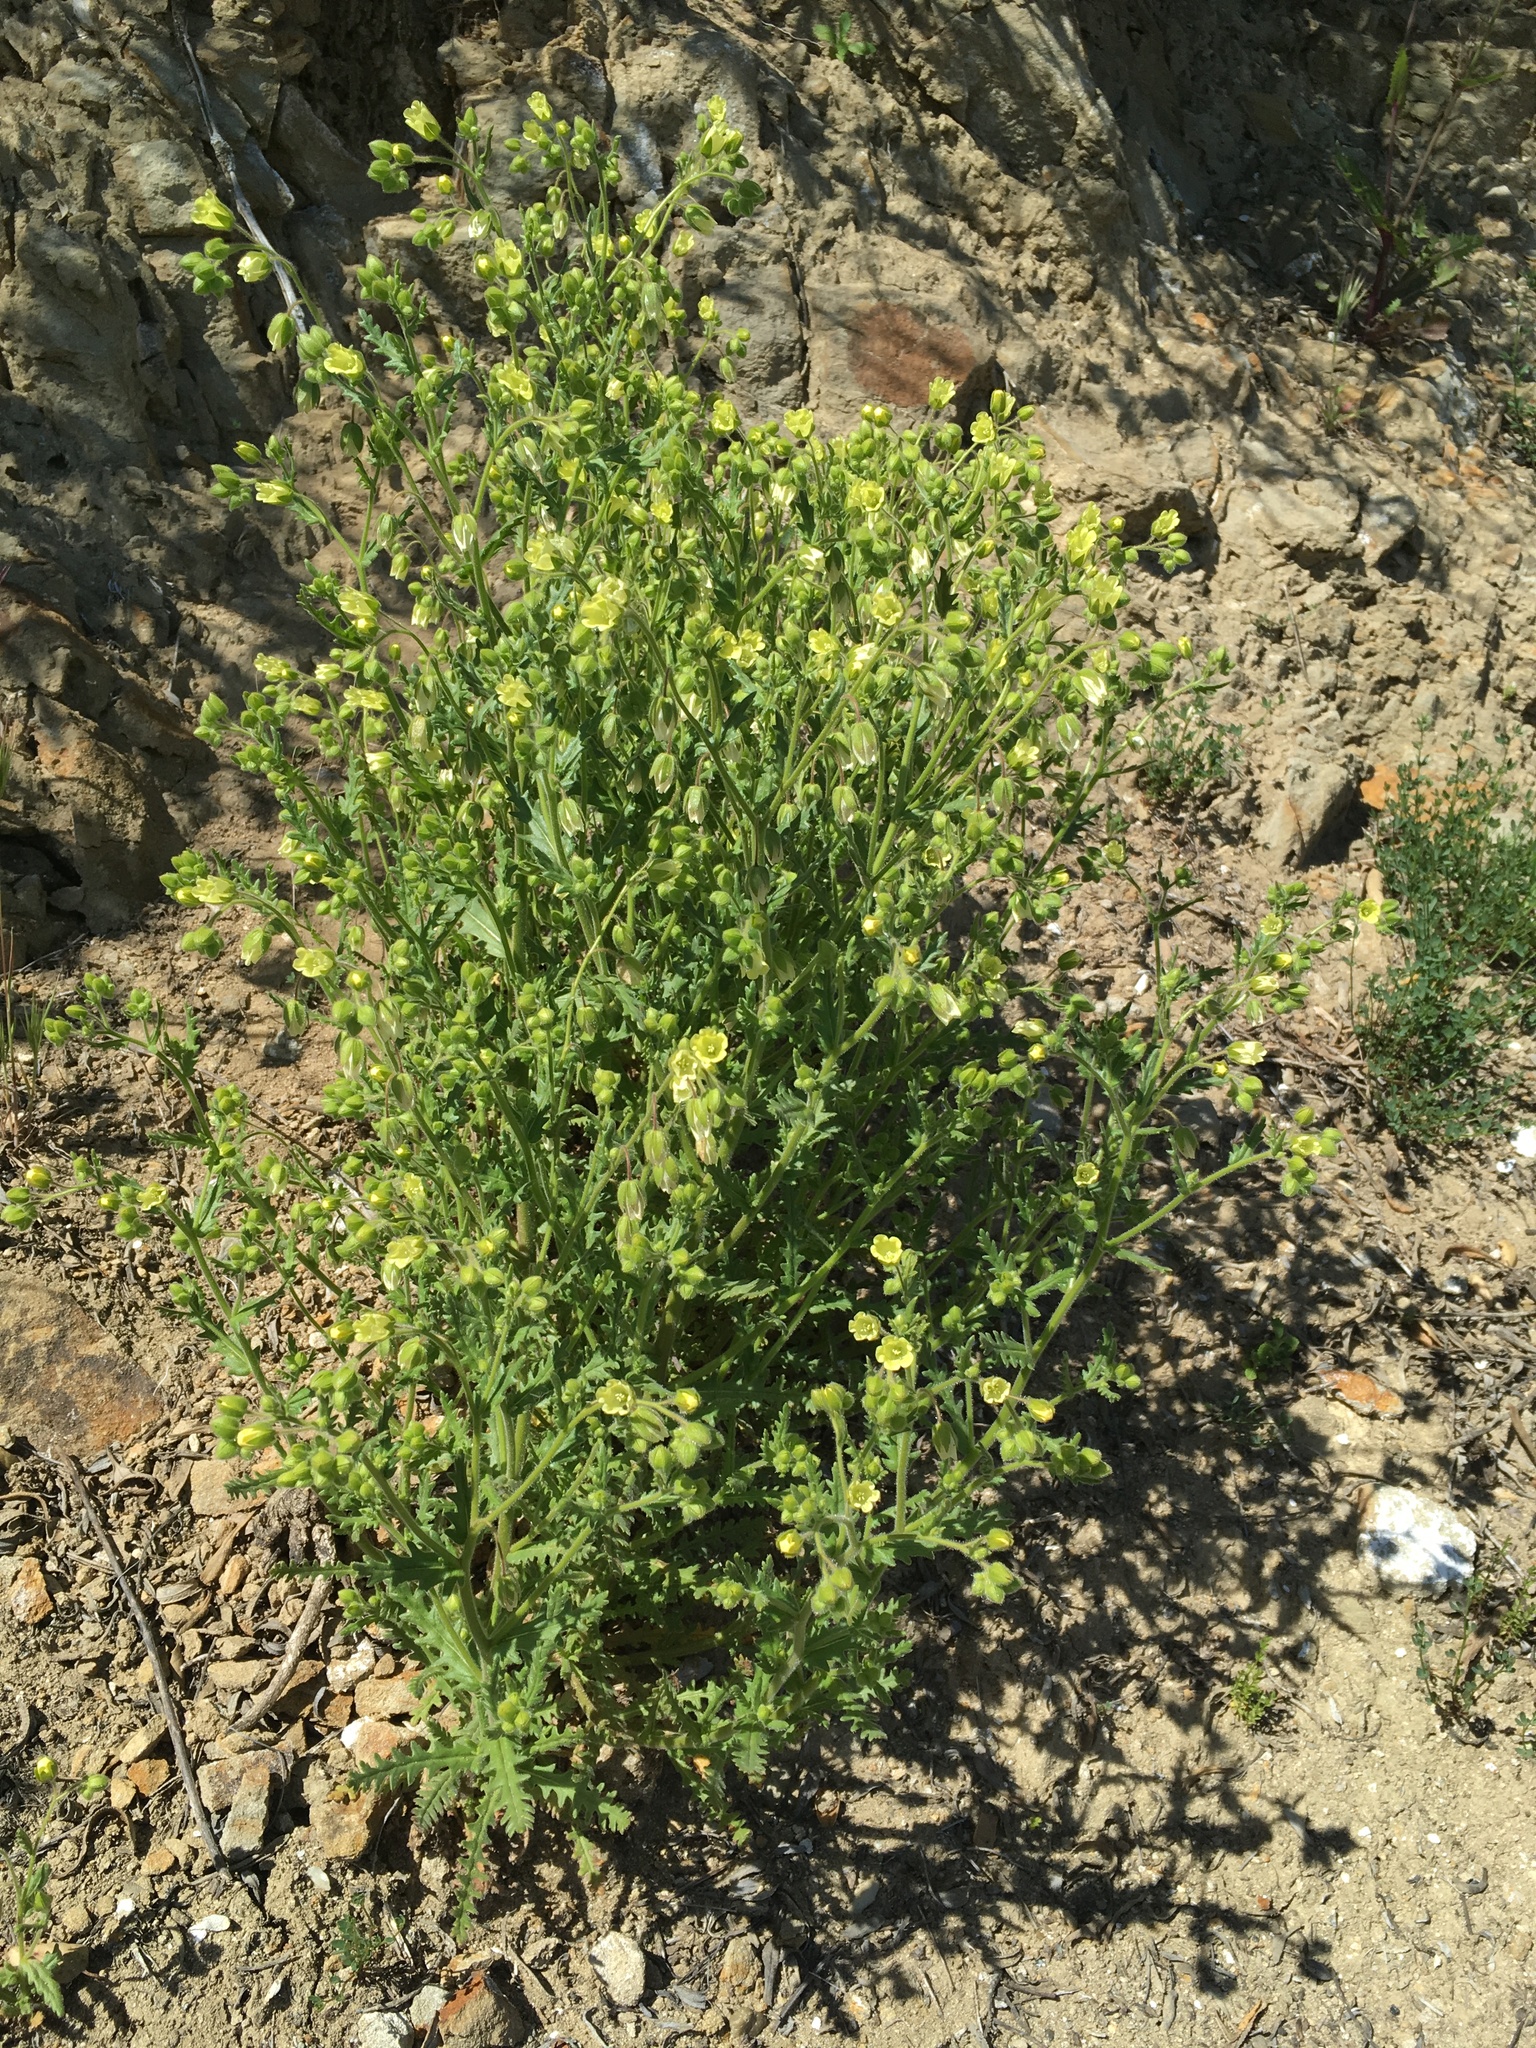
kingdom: Plantae
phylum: Tracheophyta
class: Magnoliopsida
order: Boraginales
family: Hydrophyllaceae
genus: Emmenanthe
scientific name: Emmenanthe penduliflora
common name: Whispering-bells
